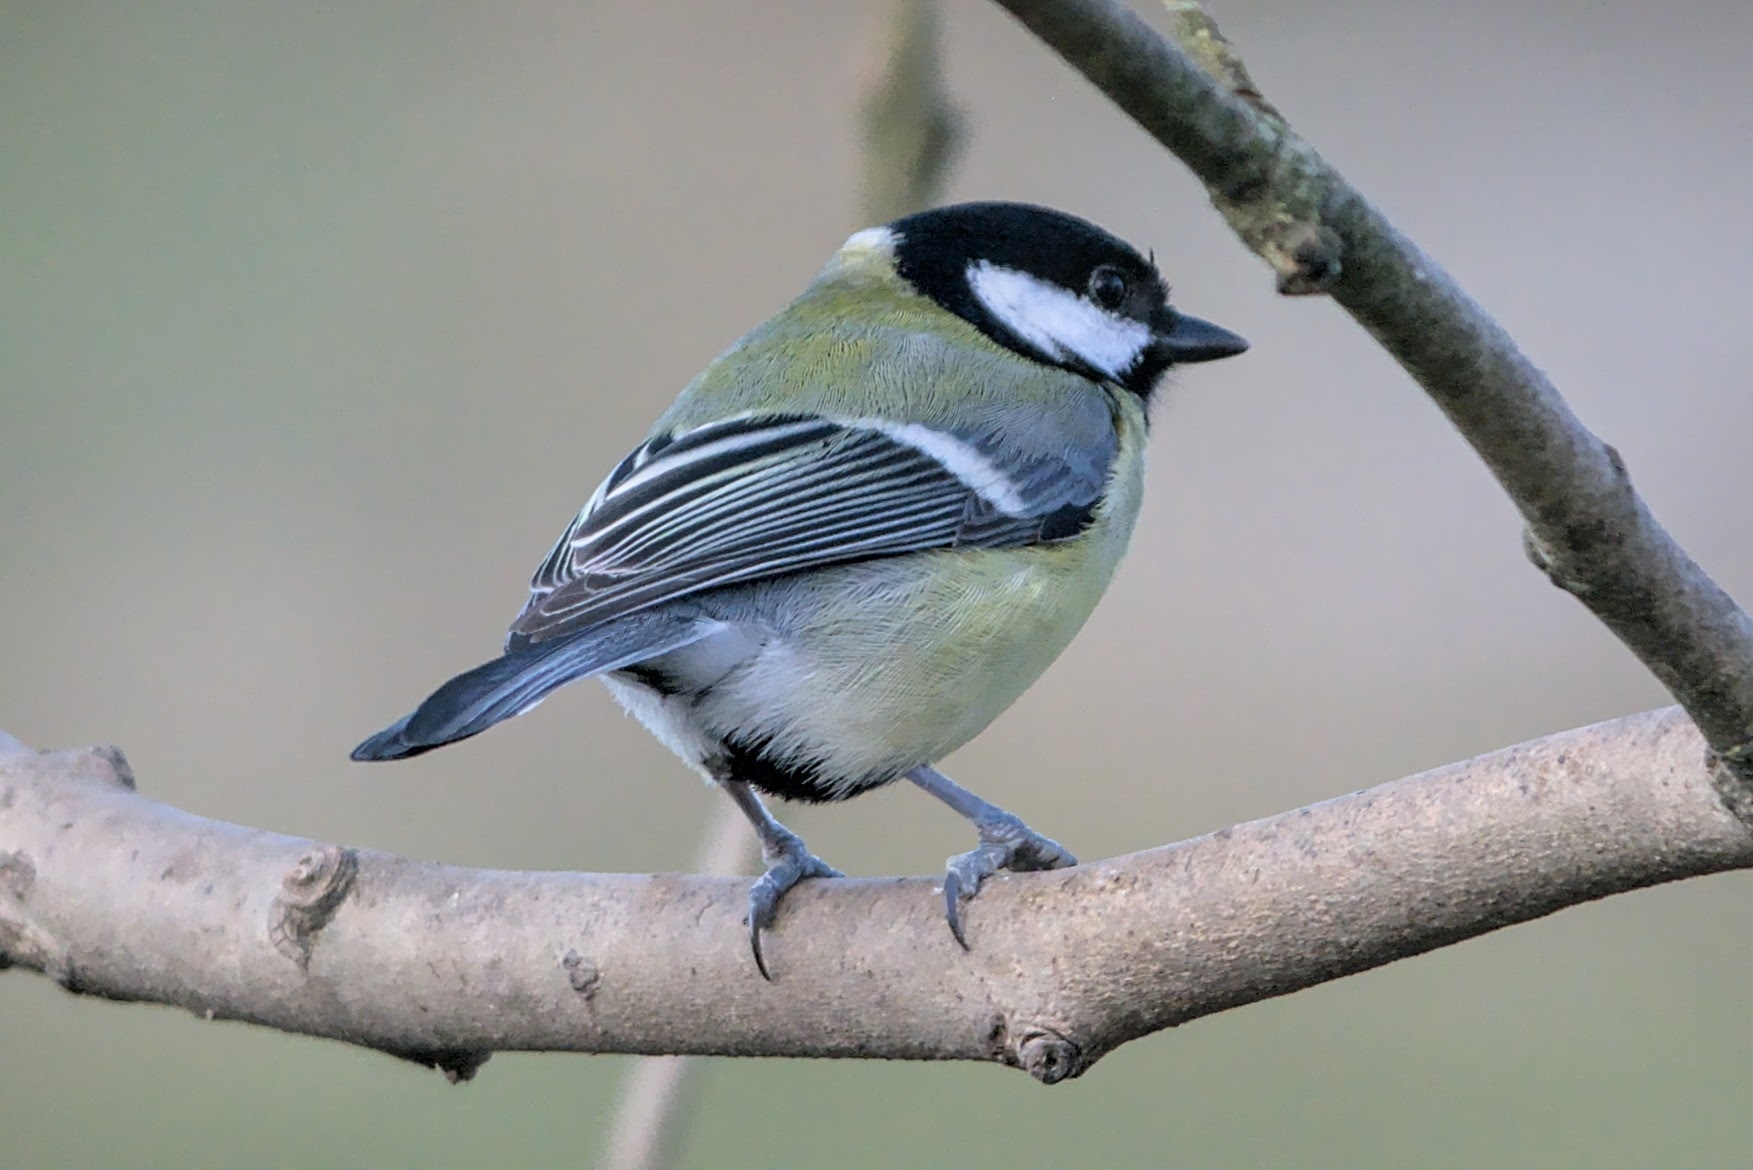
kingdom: Animalia
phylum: Chordata
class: Aves
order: Passeriformes
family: Paridae
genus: Parus
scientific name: Parus major
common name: Great tit
